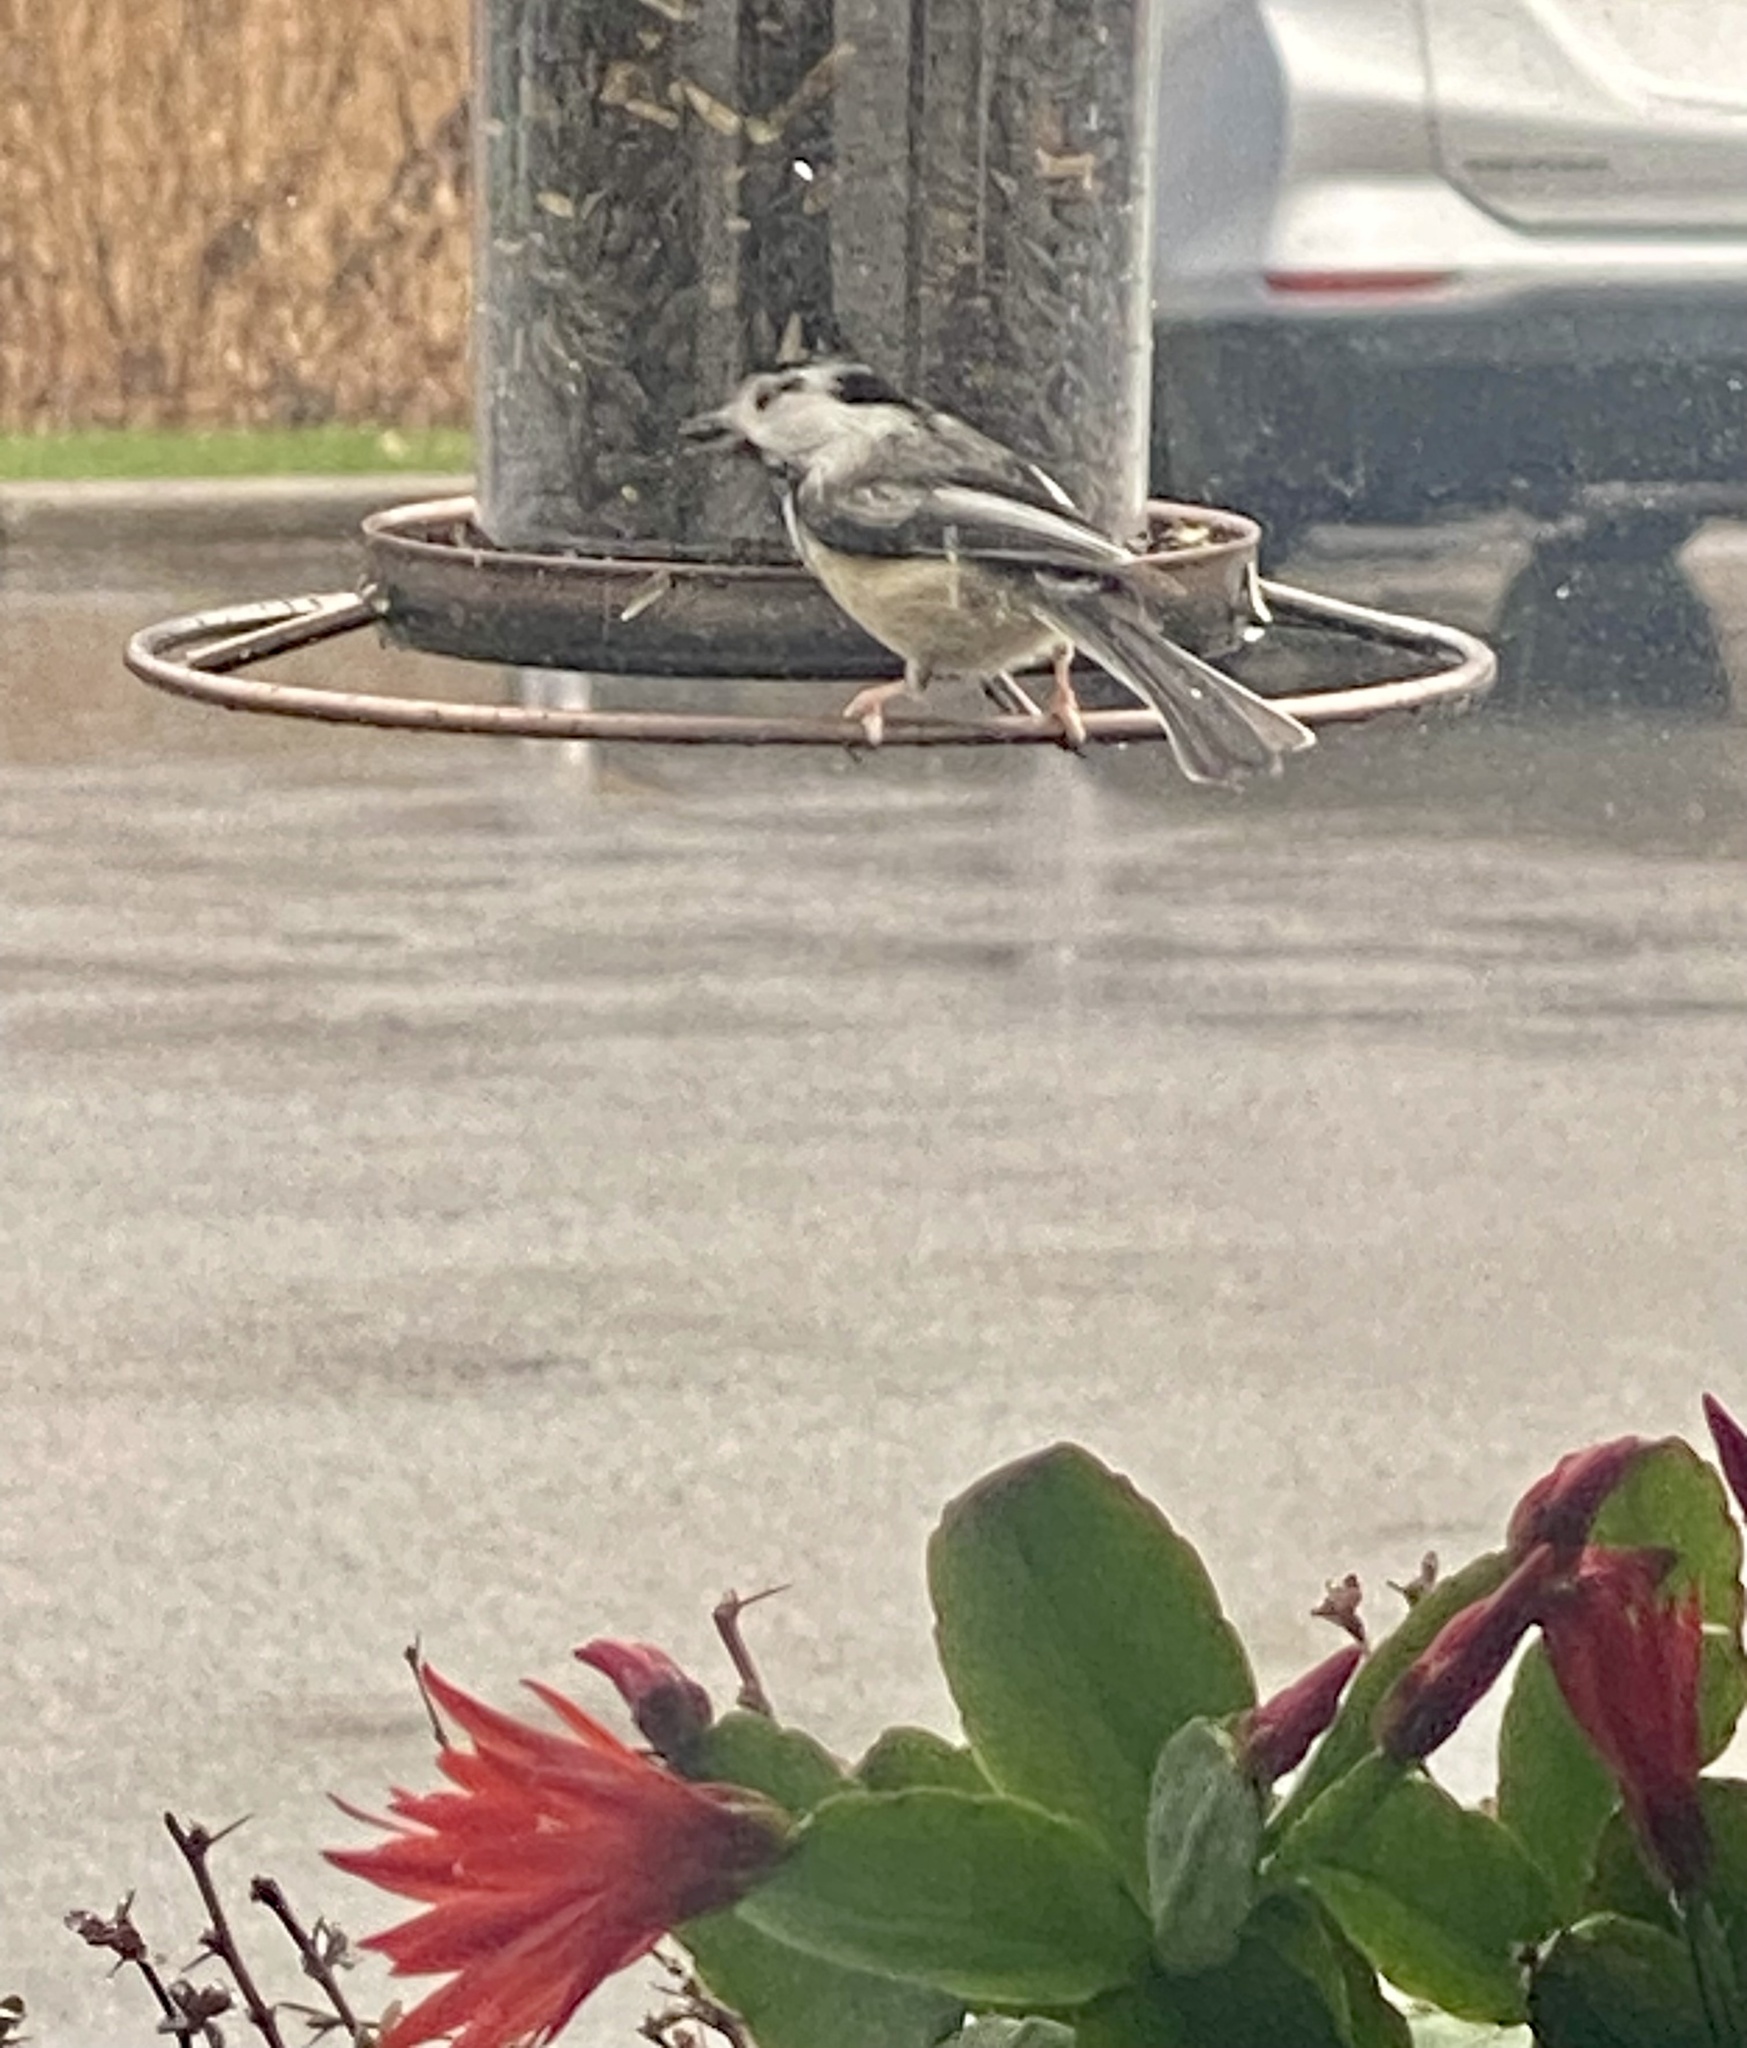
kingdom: Animalia
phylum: Chordata
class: Aves
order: Passeriformes
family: Paridae
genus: Poecile
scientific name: Poecile atricapillus
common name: Black-capped chickadee
